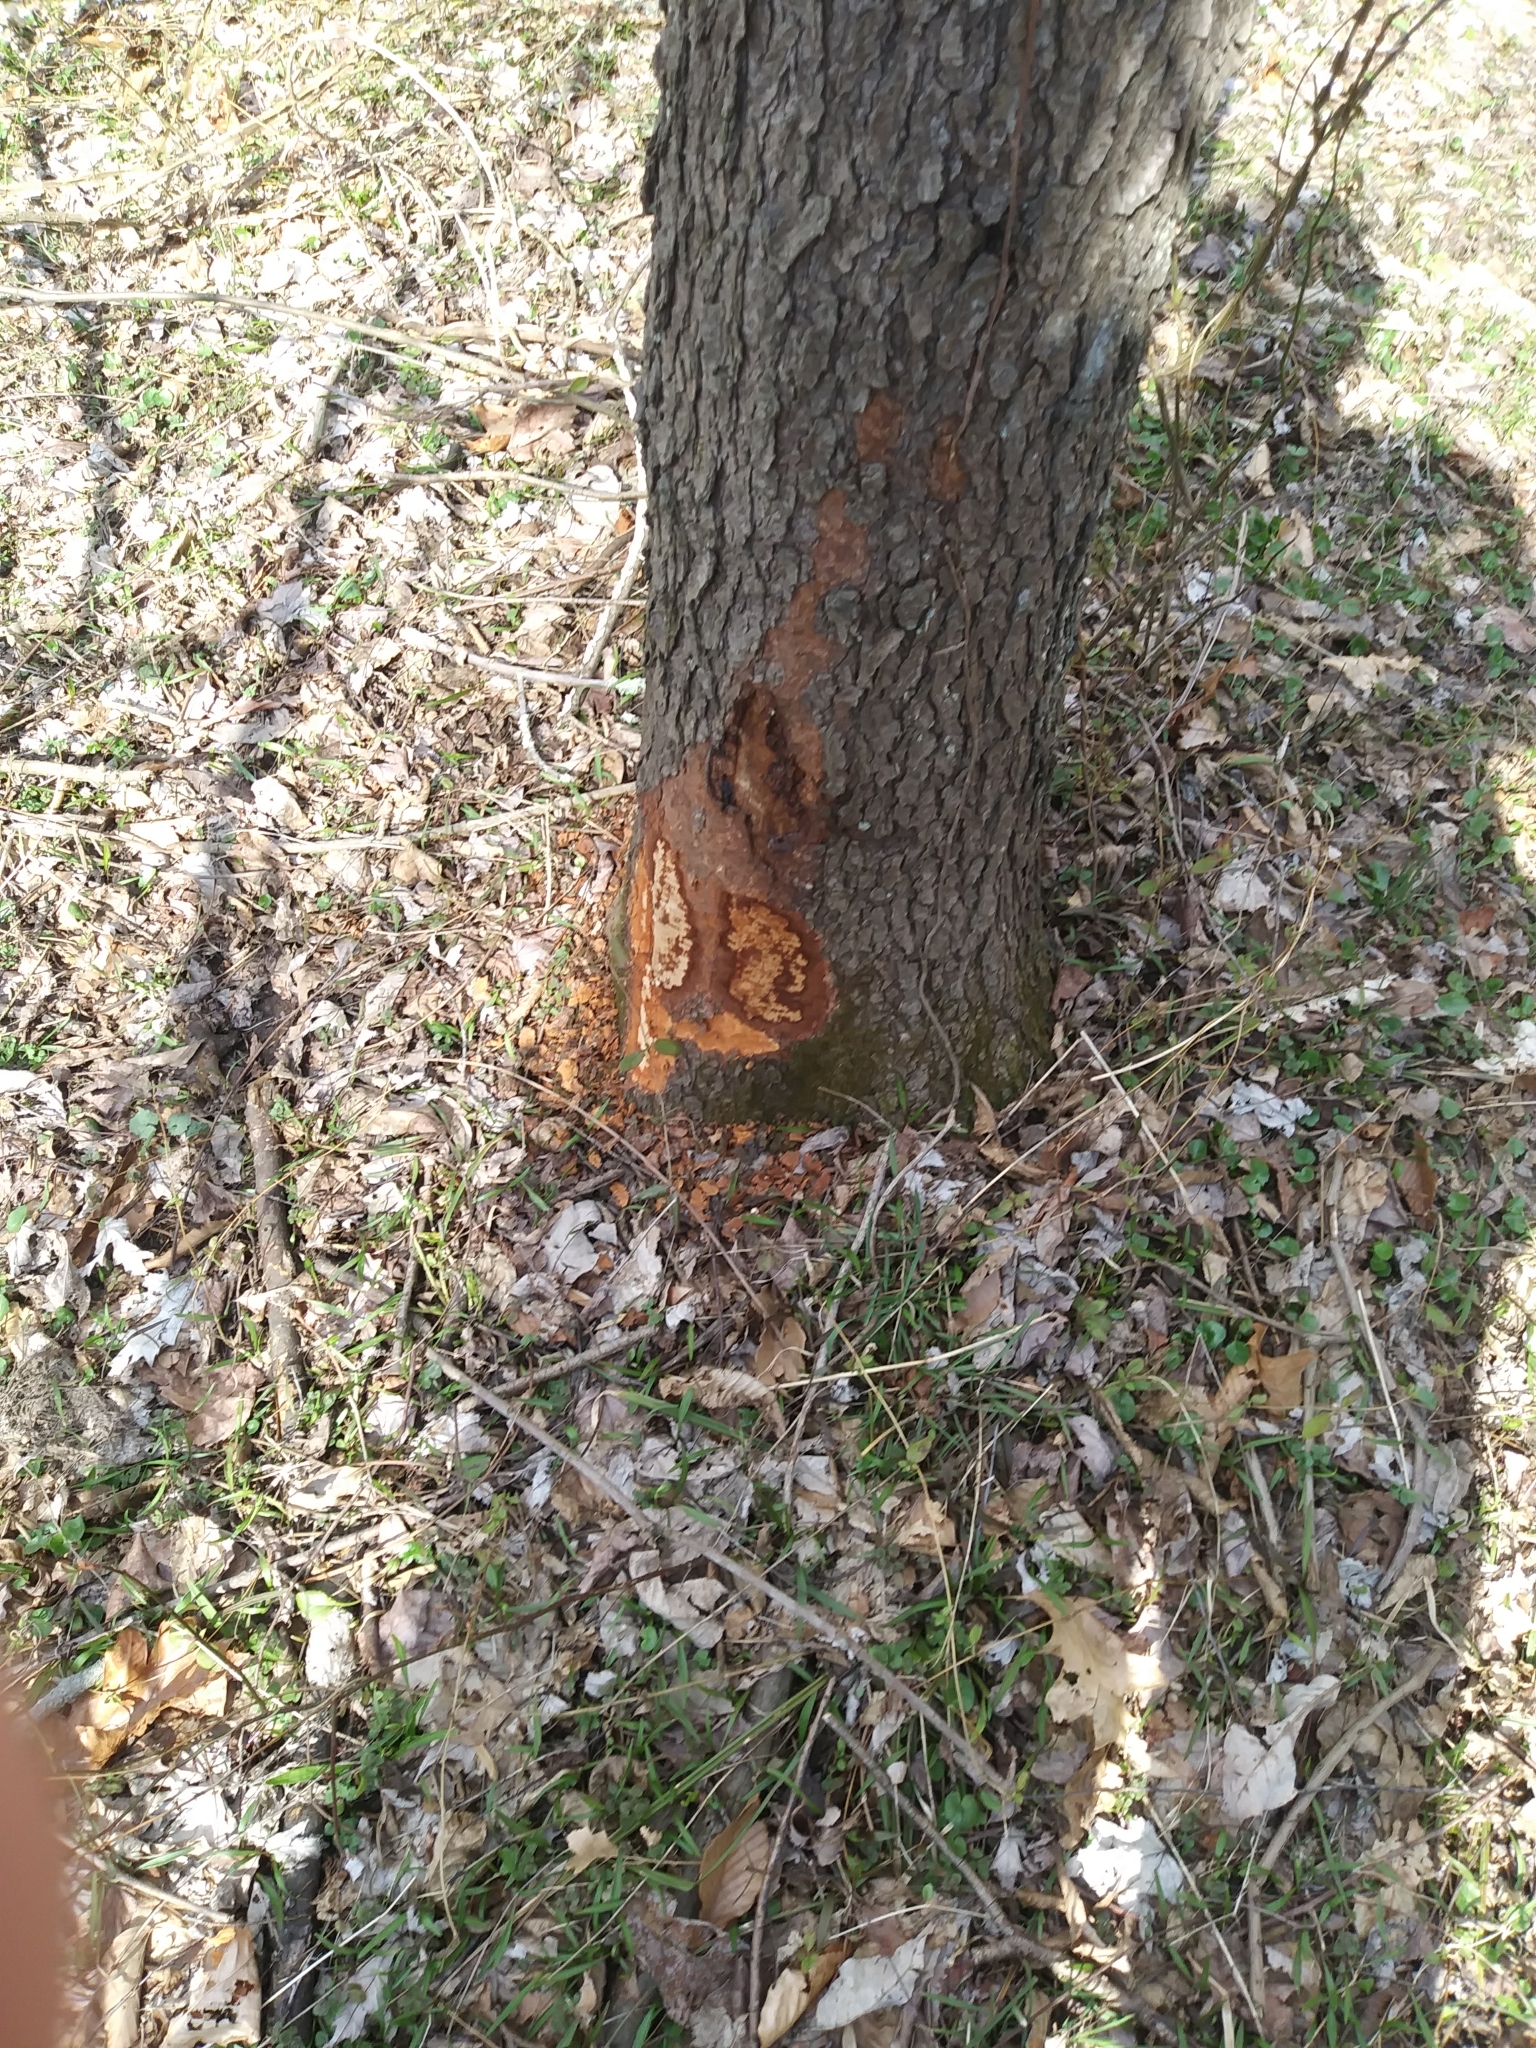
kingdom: Animalia
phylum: Chordata
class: Mammalia
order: Rodentia
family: Castoridae
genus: Castor
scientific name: Castor canadensis
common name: American beaver
